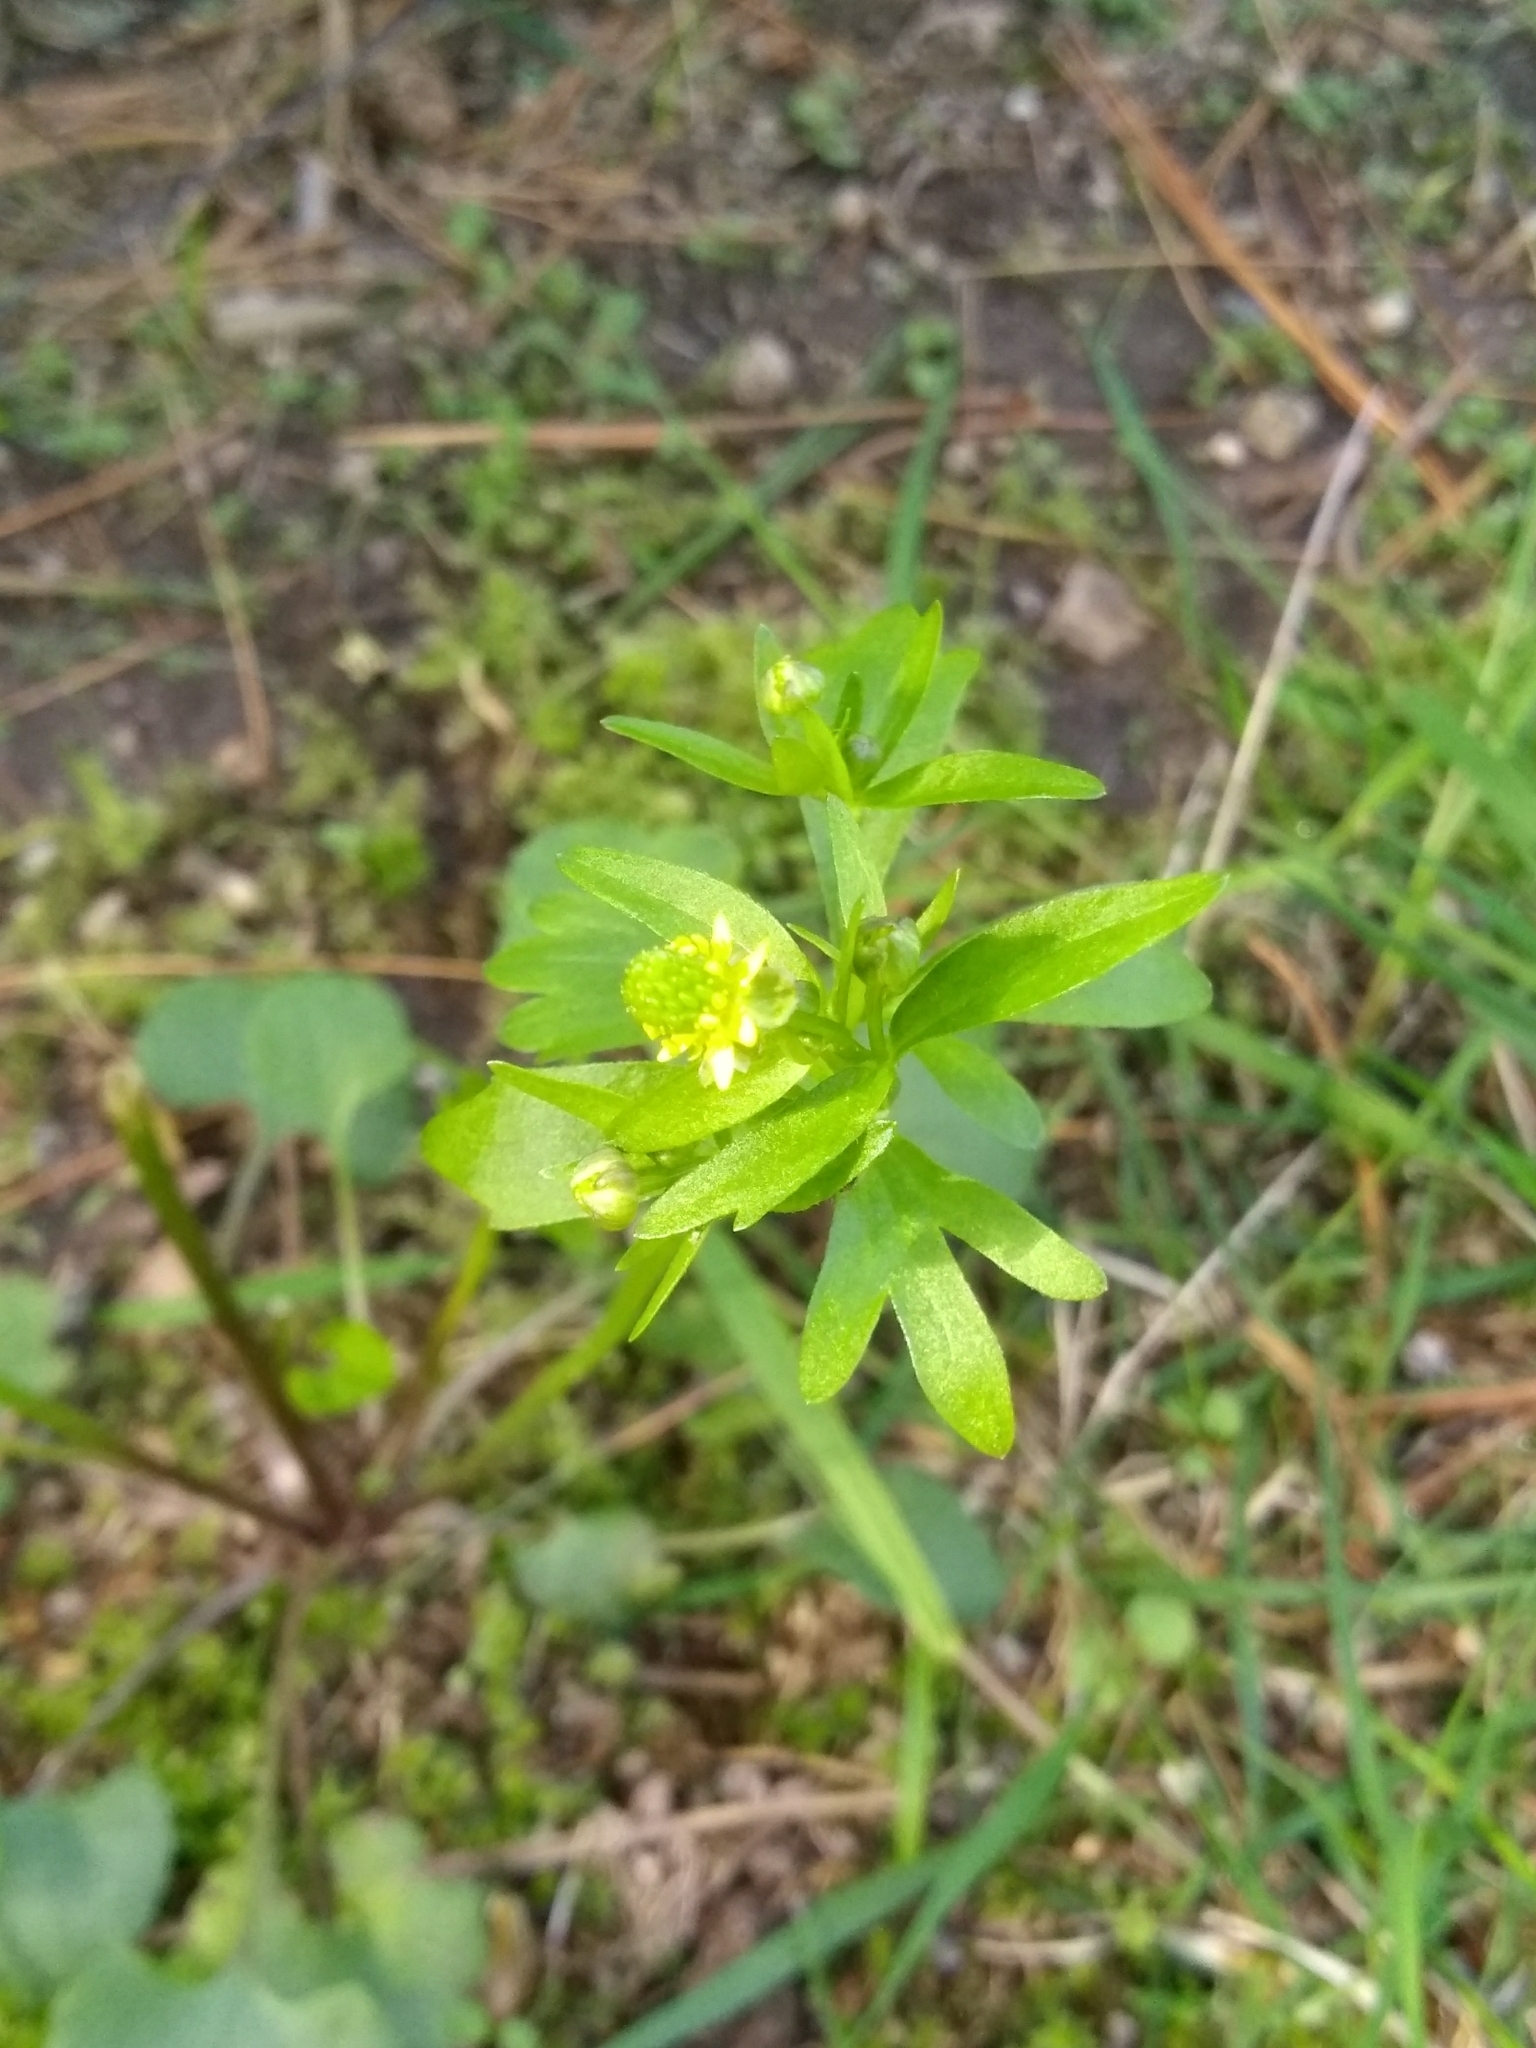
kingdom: Plantae
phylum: Tracheophyta
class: Magnoliopsida
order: Ranunculales
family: Ranunculaceae
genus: Ranunculus
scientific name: Ranunculus abortivus
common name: Early wood buttercup
